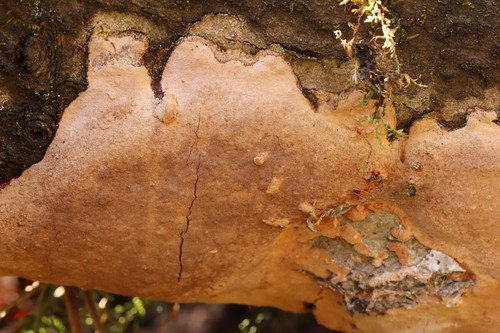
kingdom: Fungi
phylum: Basidiomycota
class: Agaricomycetes
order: Hymenochaetales
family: Hymenochaetaceae
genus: Fomitiporia
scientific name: Fomitiporia punctata
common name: Elbowpatch crust
